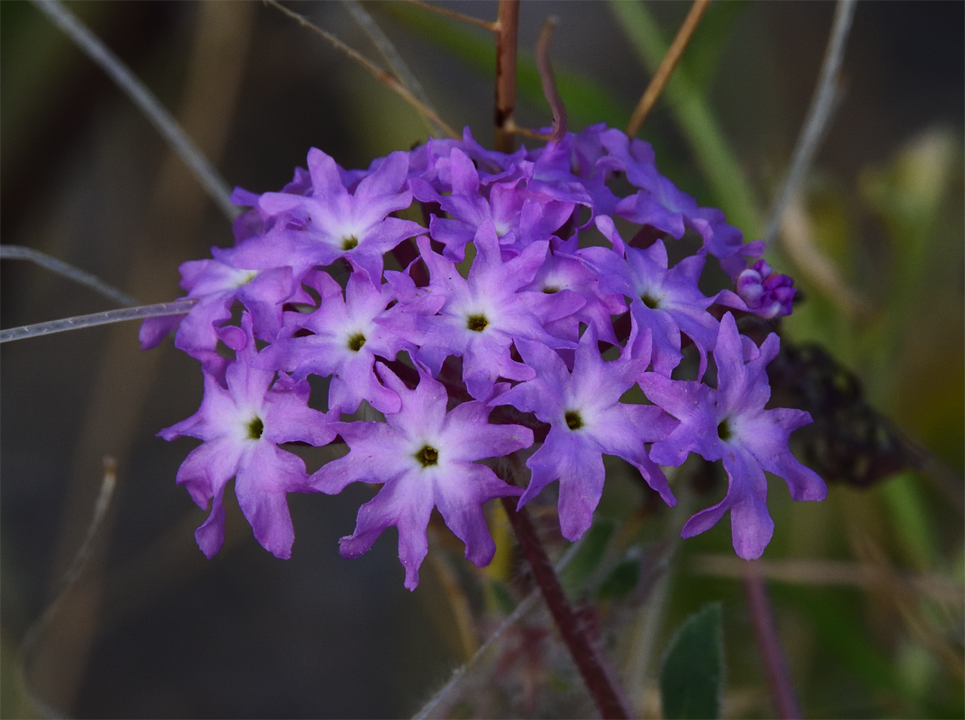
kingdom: Plantae
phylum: Tracheophyta
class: Magnoliopsida
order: Caryophyllales
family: Nyctaginaceae
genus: Abronia
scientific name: Abronia villosa
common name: Desert sand-verbena
